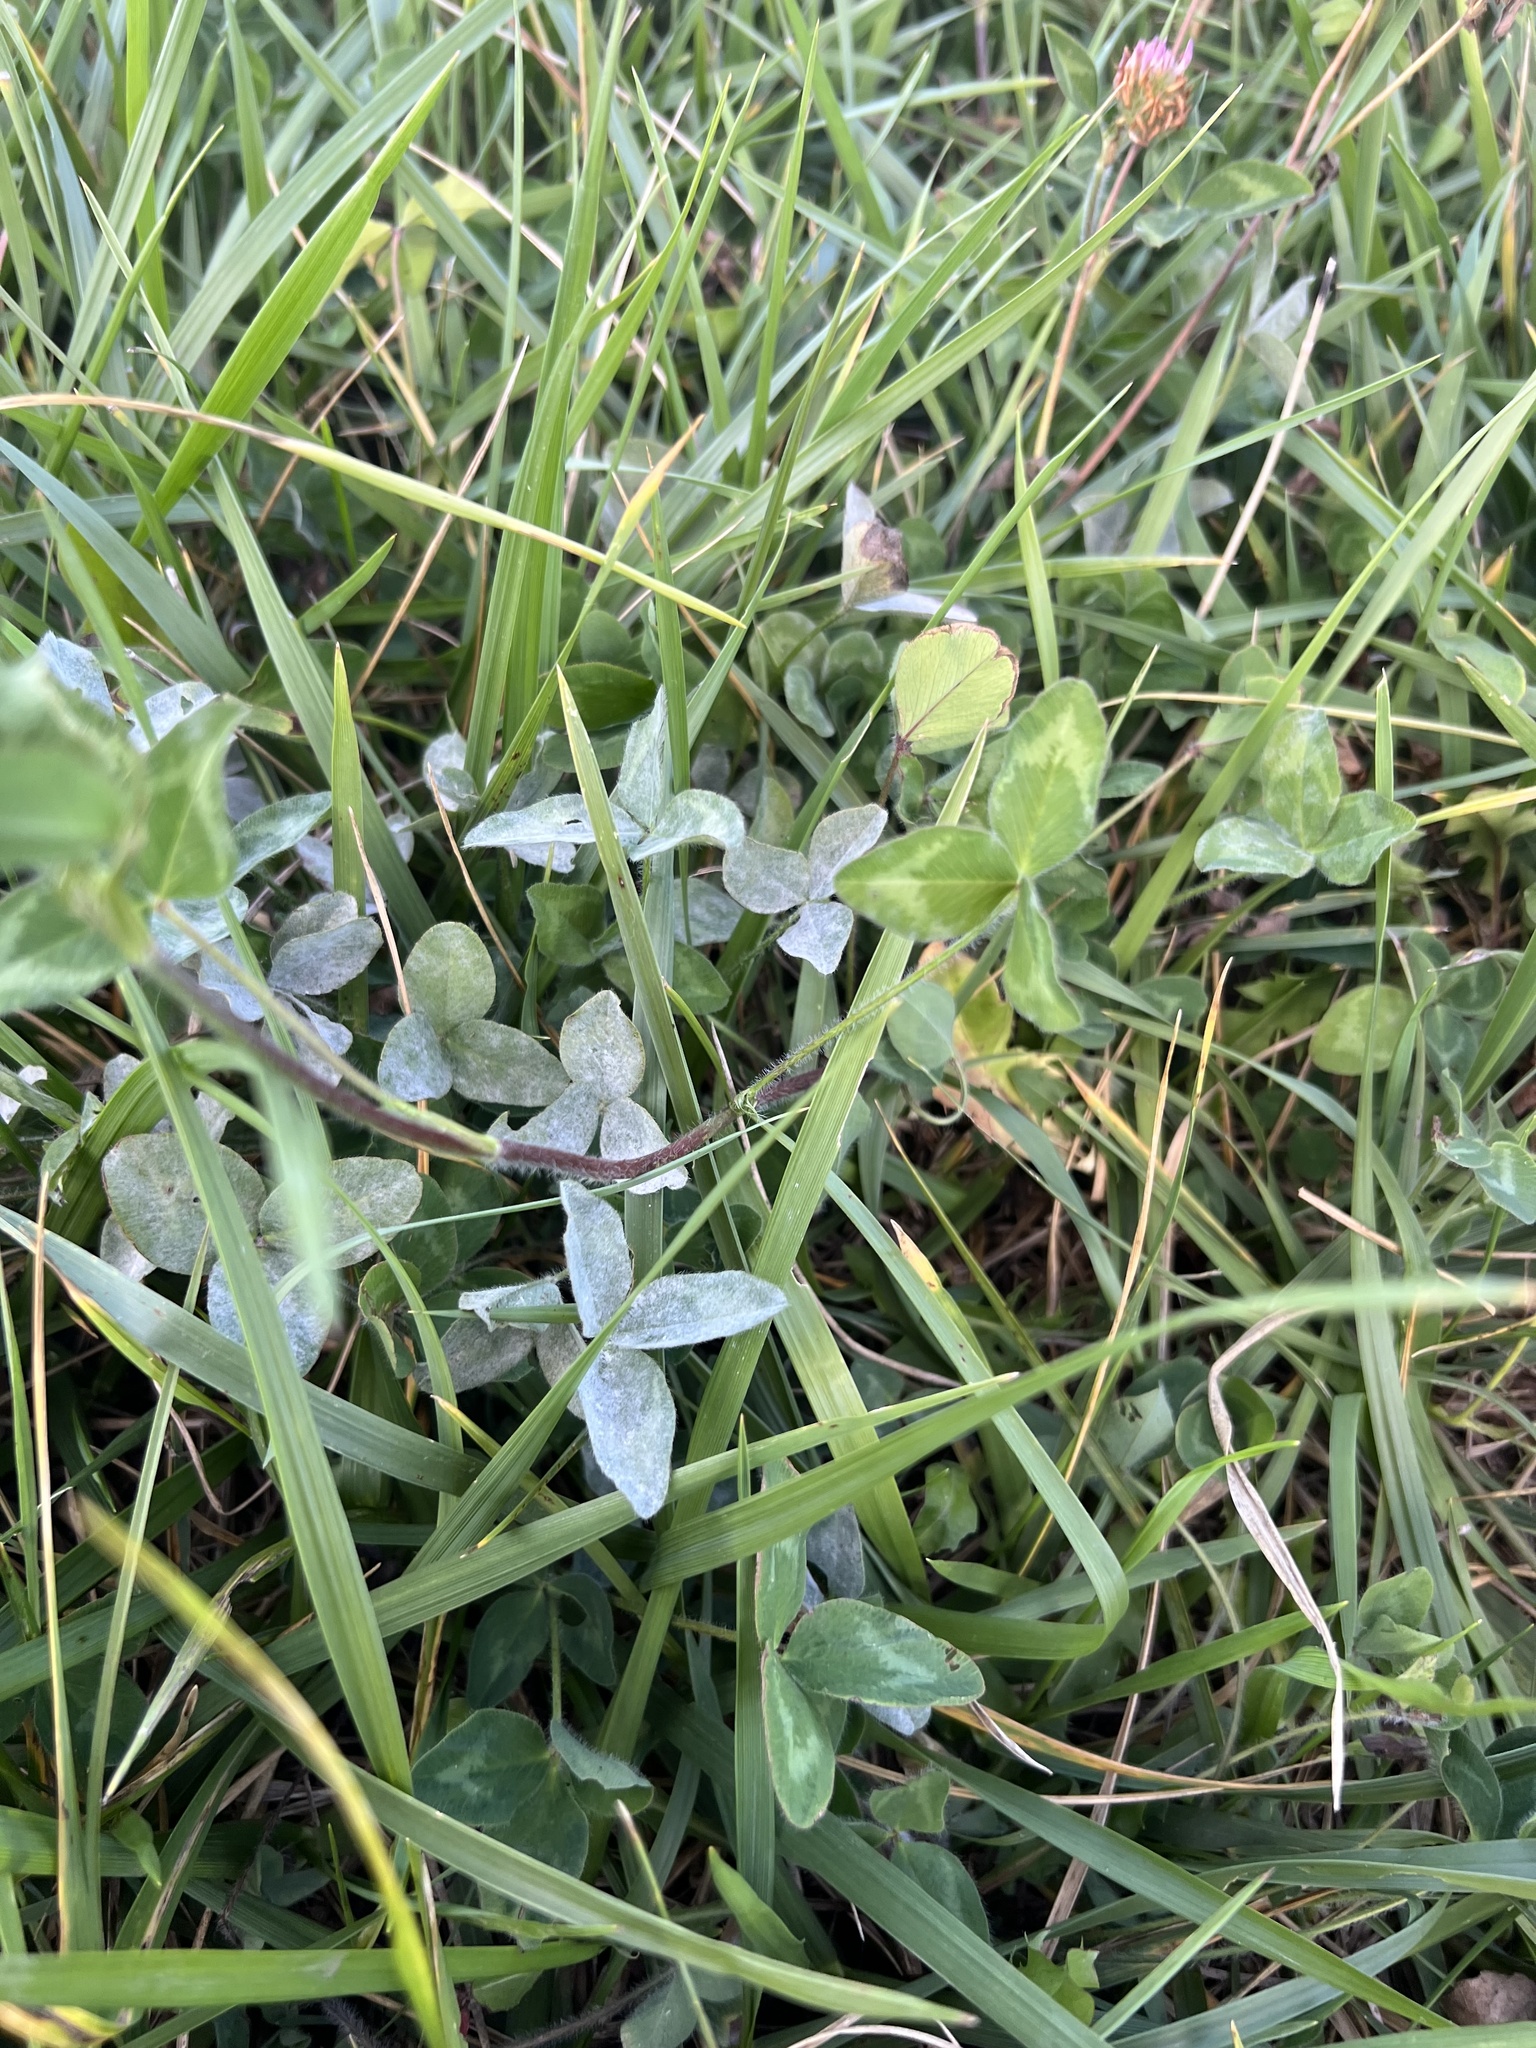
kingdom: Plantae
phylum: Tracheophyta
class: Magnoliopsida
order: Fabales
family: Fabaceae
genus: Trifolium
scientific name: Trifolium pratense
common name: Red clover
